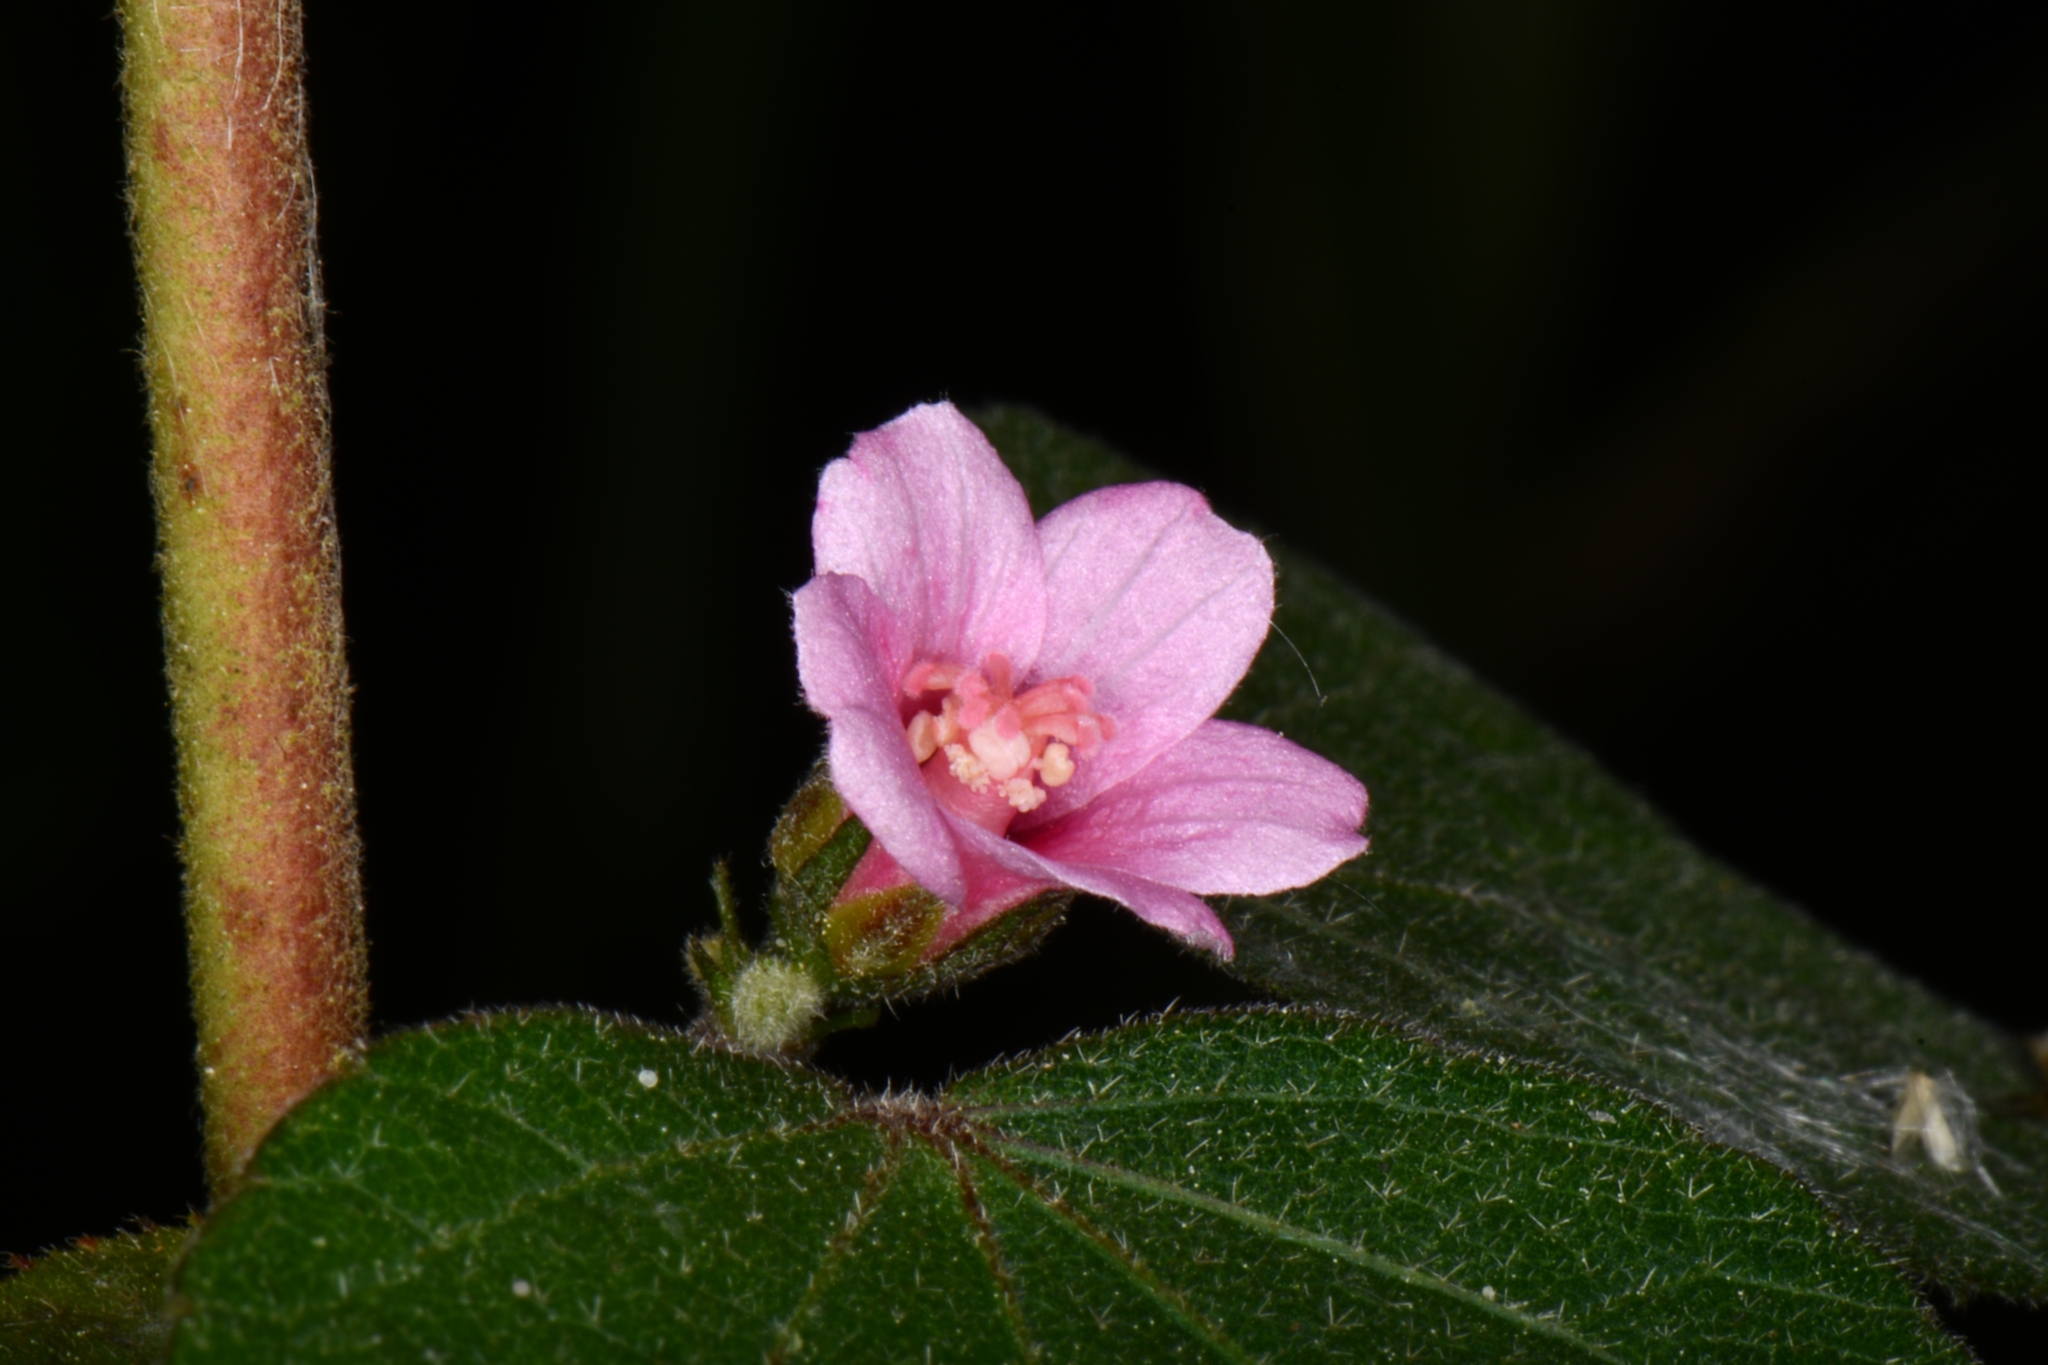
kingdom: Plantae
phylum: Tracheophyta
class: Magnoliopsida
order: Malvales
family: Malvaceae
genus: Urena
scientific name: Urena lobata
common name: Caesarweed
